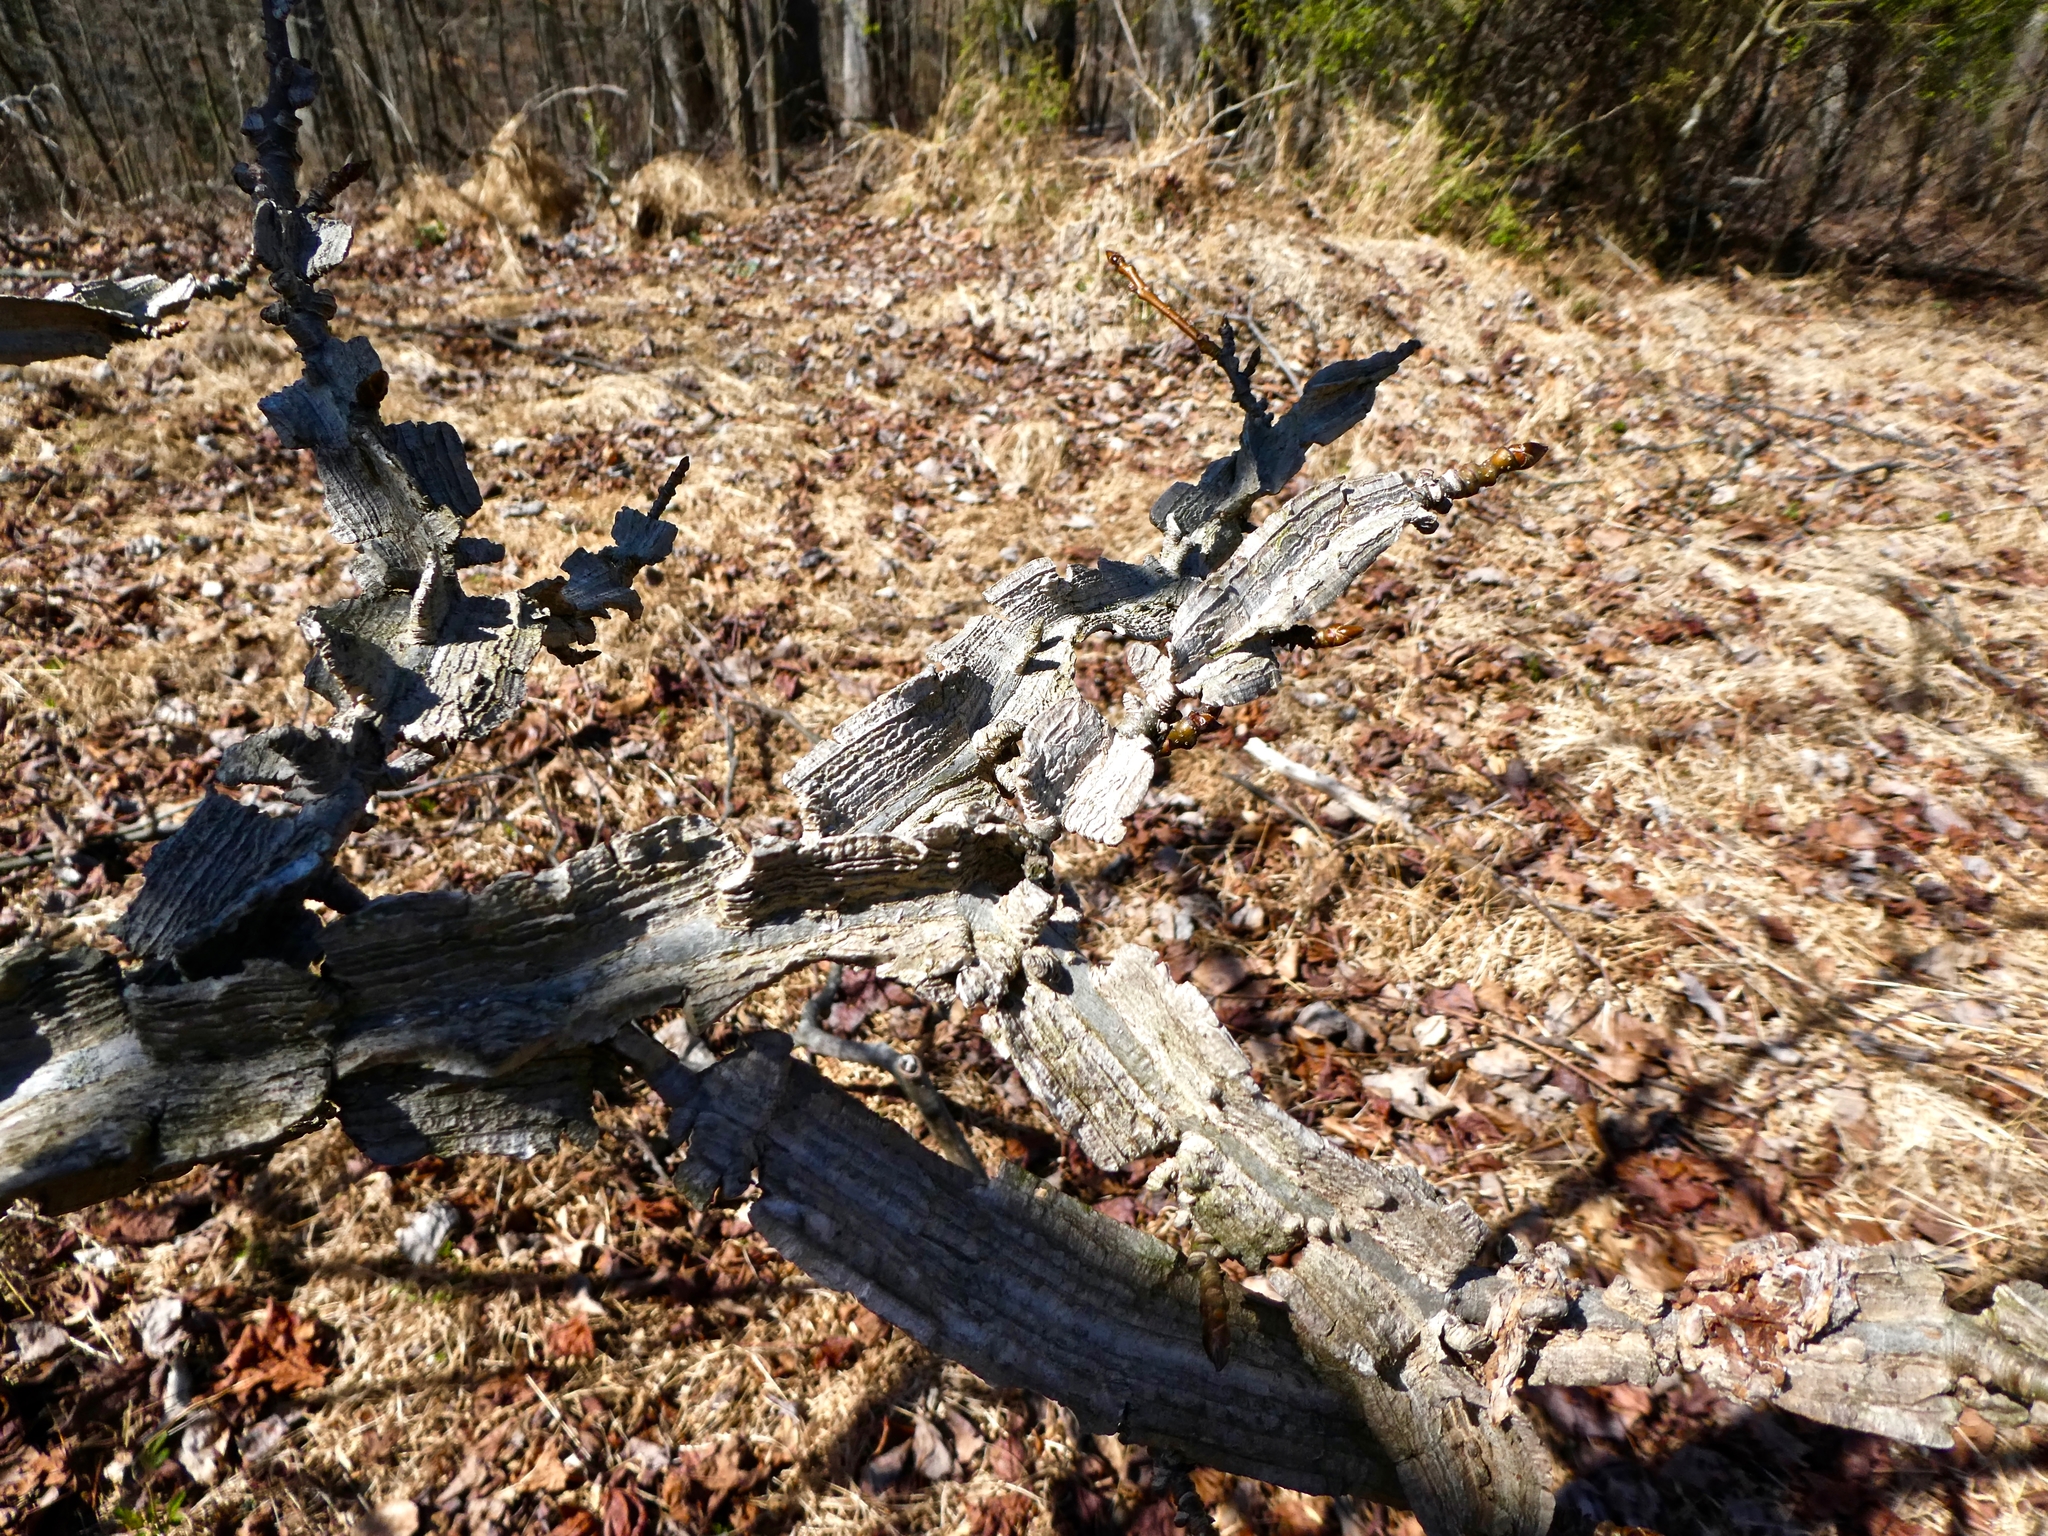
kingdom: Plantae
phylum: Tracheophyta
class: Magnoliopsida
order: Saxifragales
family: Altingiaceae
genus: Liquidambar
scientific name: Liquidambar styraciflua
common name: Sweet gum
